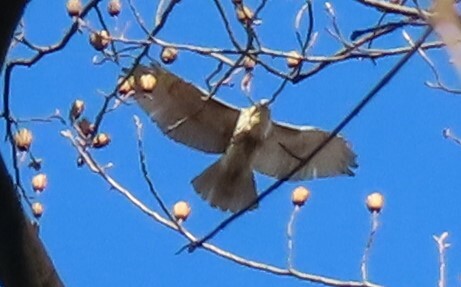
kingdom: Animalia
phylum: Chordata
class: Aves
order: Accipitriformes
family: Accipitridae
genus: Buteo
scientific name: Buteo jamaicensis
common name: Red-tailed hawk
